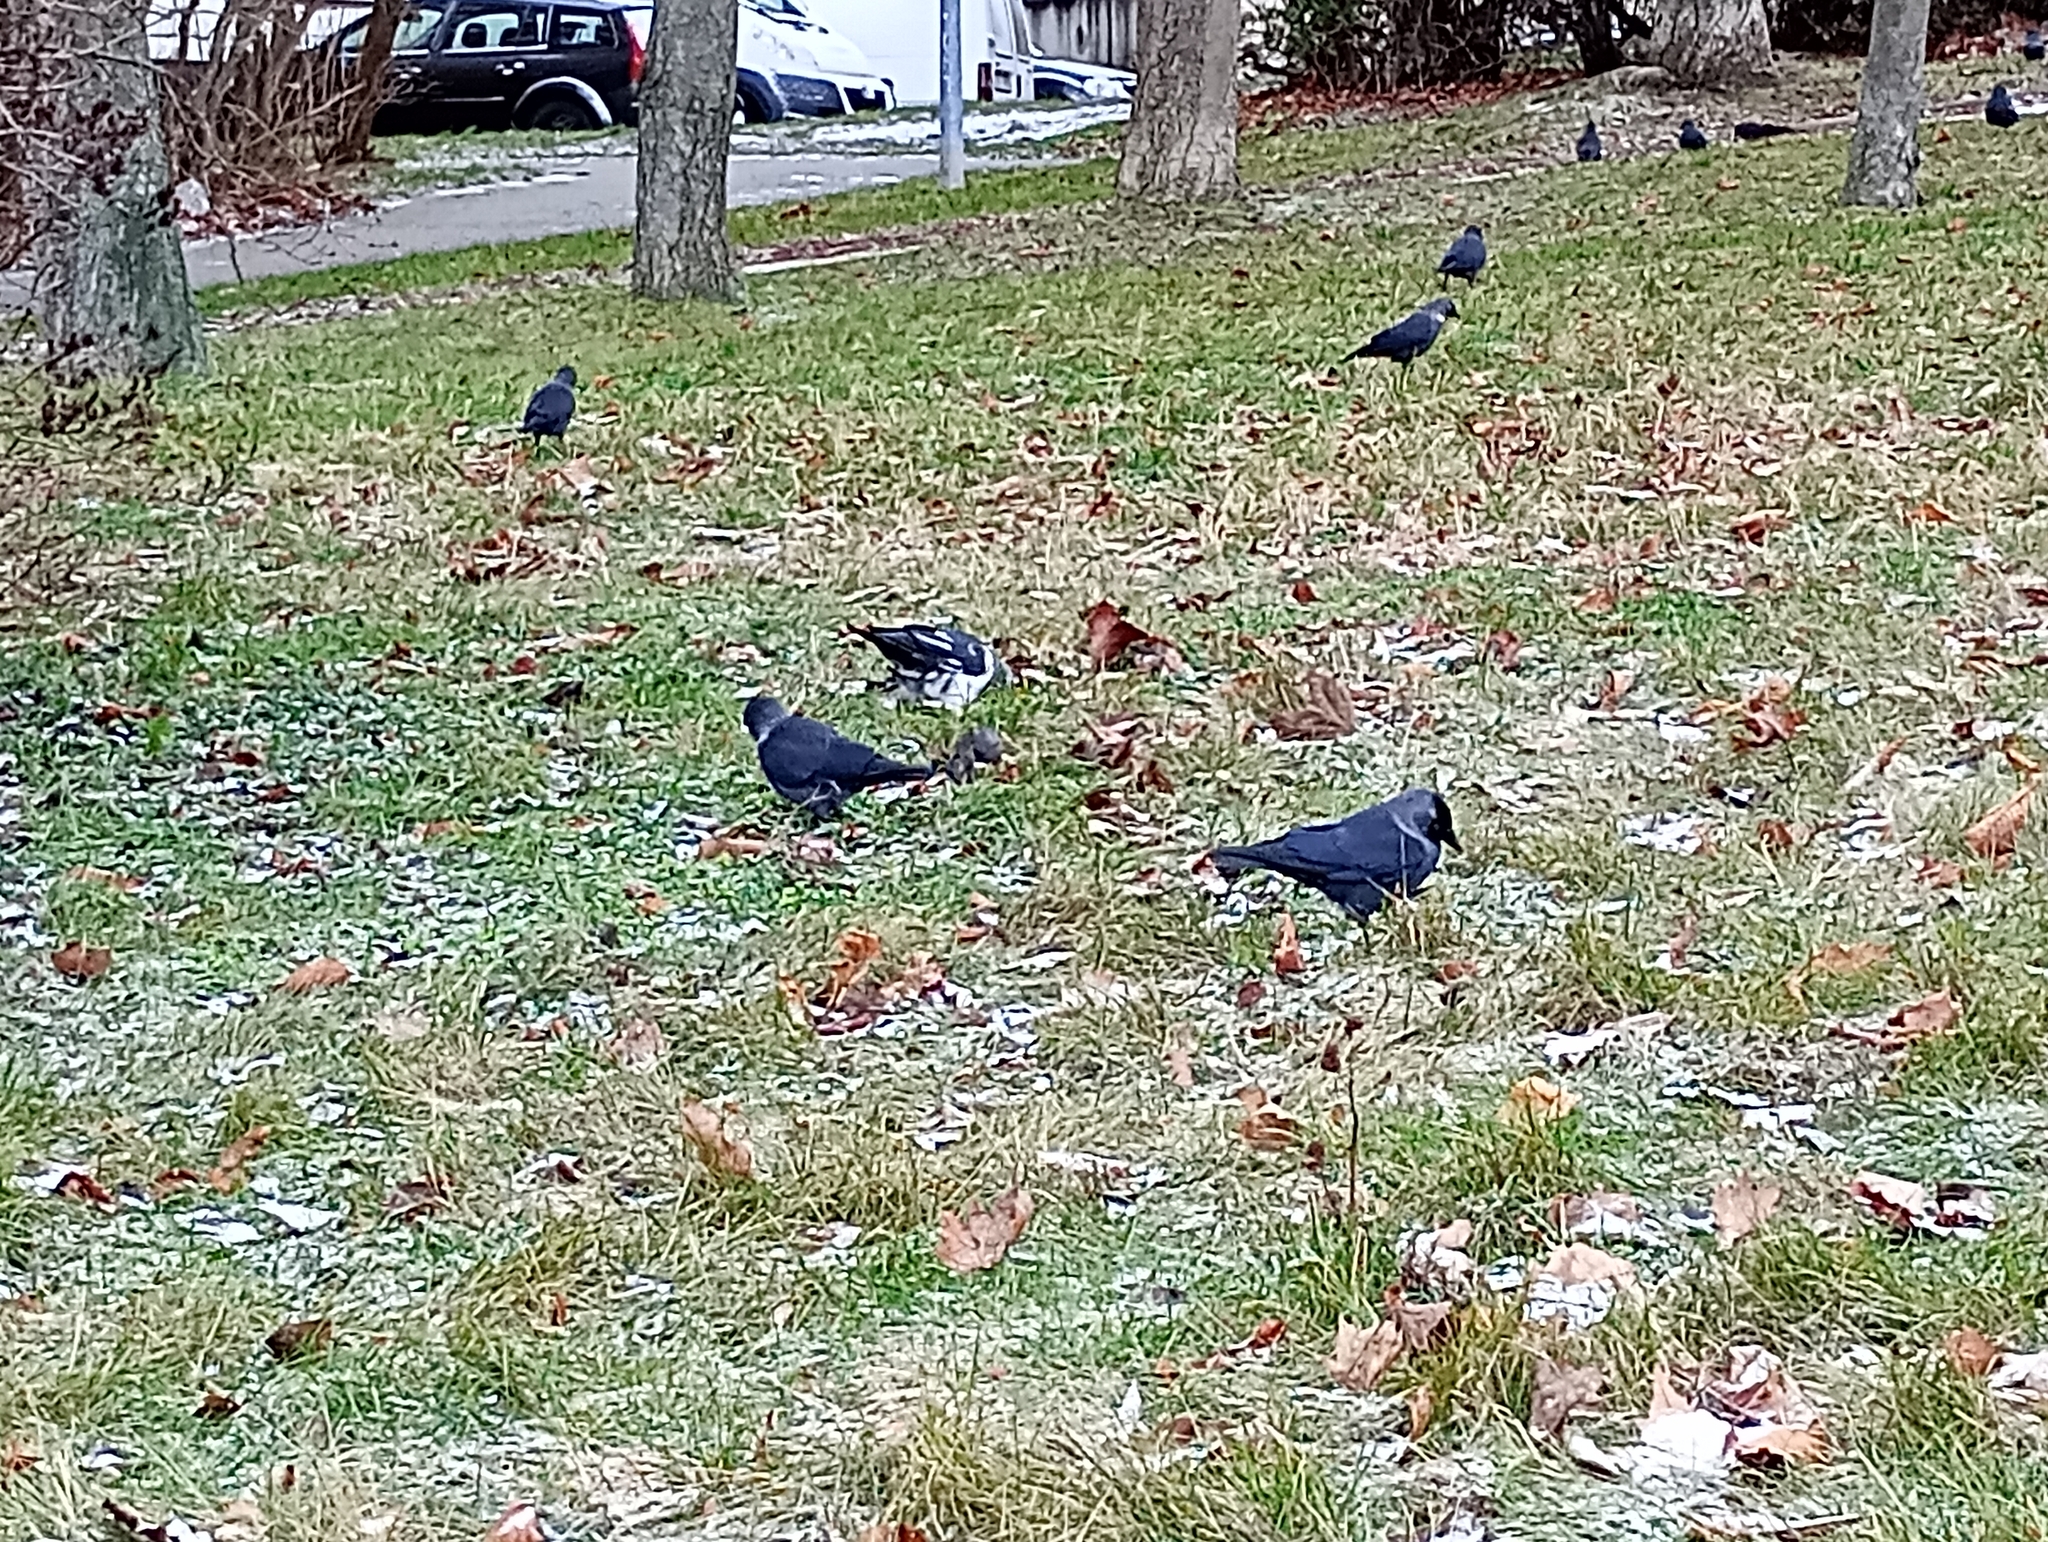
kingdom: Animalia
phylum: Chordata
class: Aves
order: Passeriformes
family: Corvidae
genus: Coloeus
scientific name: Coloeus monedula
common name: Western jackdaw
